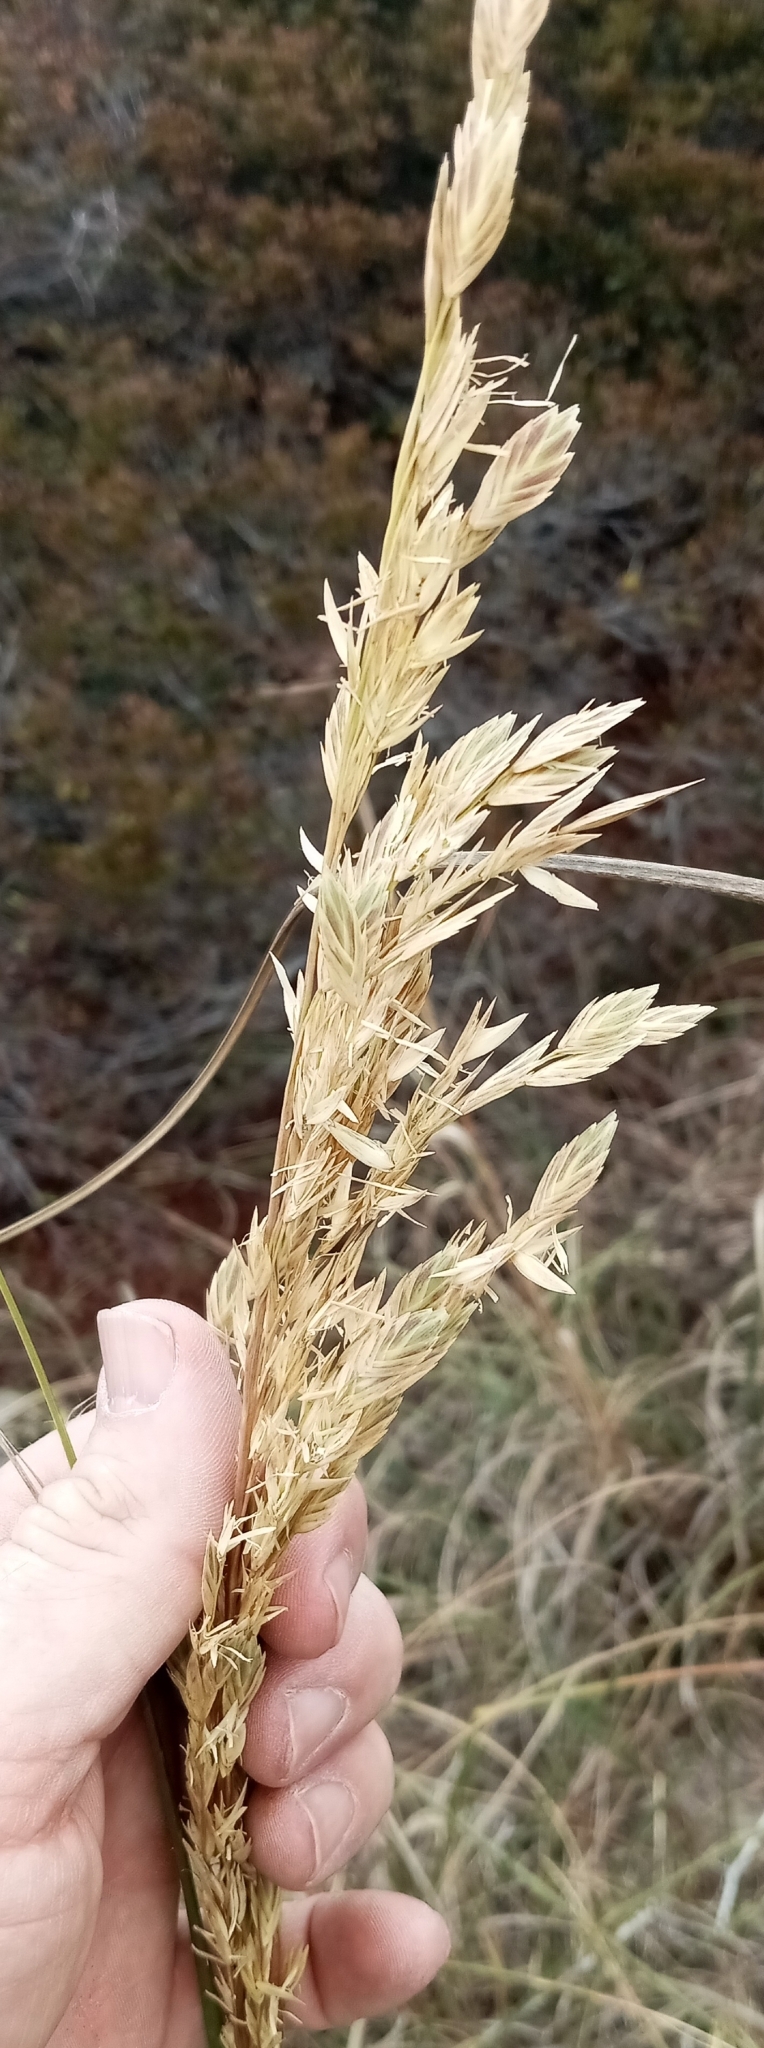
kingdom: Plantae
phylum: Tracheophyta
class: Liliopsida
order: Poales
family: Poaceae
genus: Uniola
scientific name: Uniola paniculata
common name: Seaside-oats
